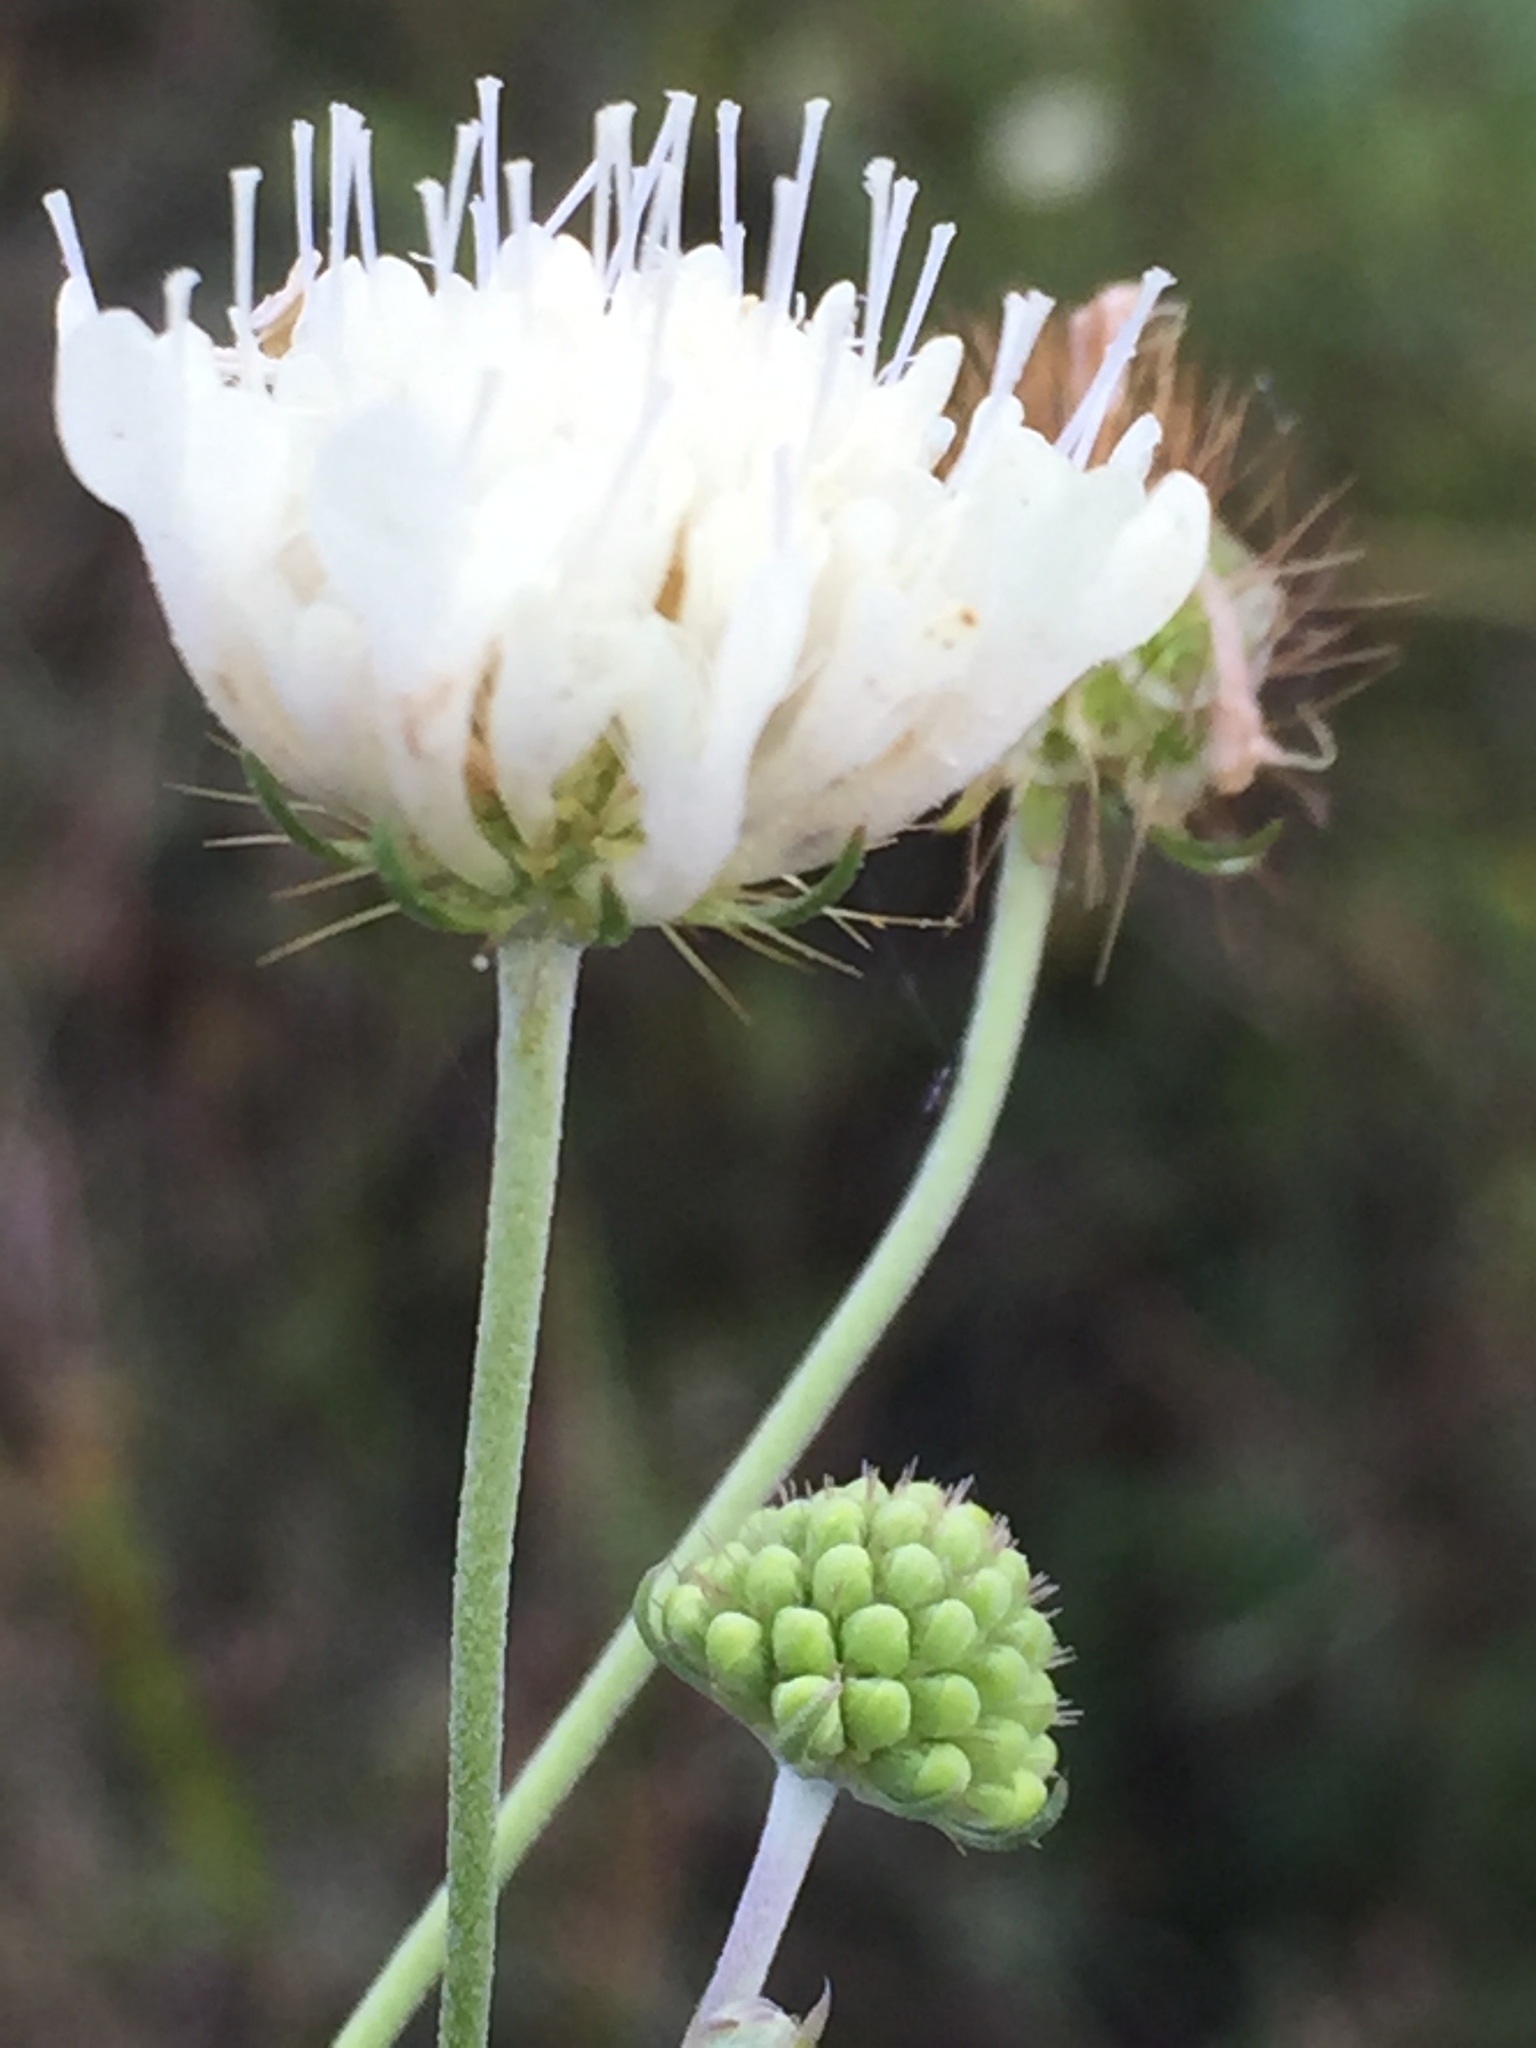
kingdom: Plantae
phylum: Tracheophyta
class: Magnoliopsida
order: Dipsacales
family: Caprifoliaceae
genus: Scabiosa
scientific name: Scabiosa ochroleuca
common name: Cream pincushions
